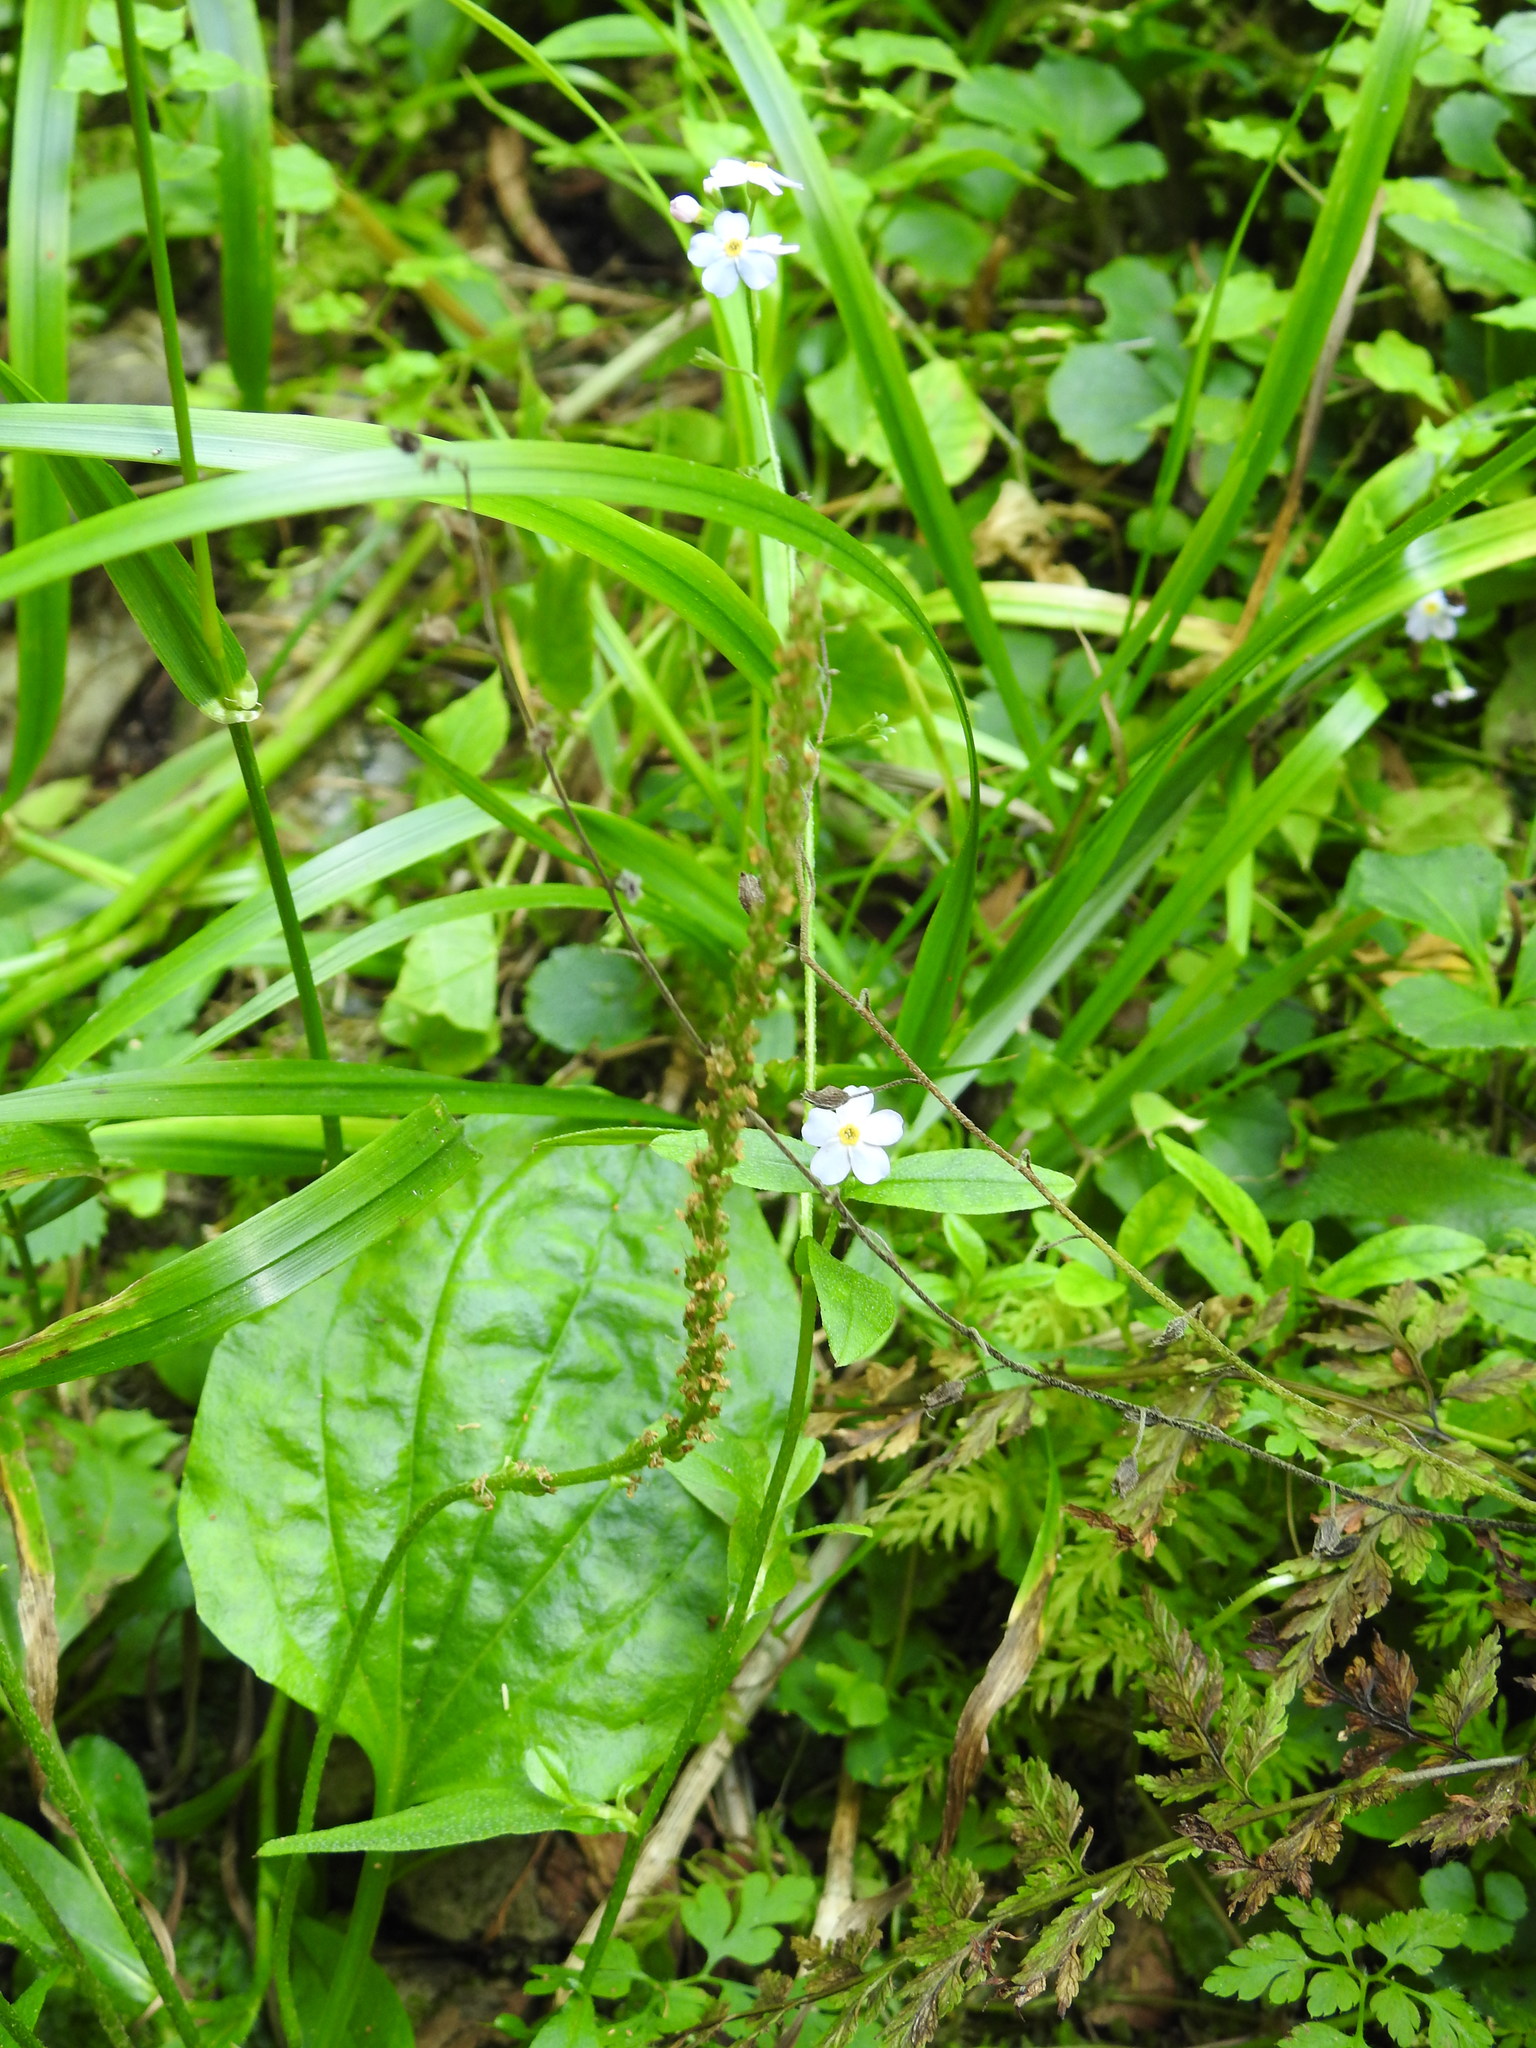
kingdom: Plantae
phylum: Tracheophyta
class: Magnoliopsida
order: Boraginales
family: Boraginaceae
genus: Myosotis
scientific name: Myosotis scorpioides
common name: Water forget-me-not
